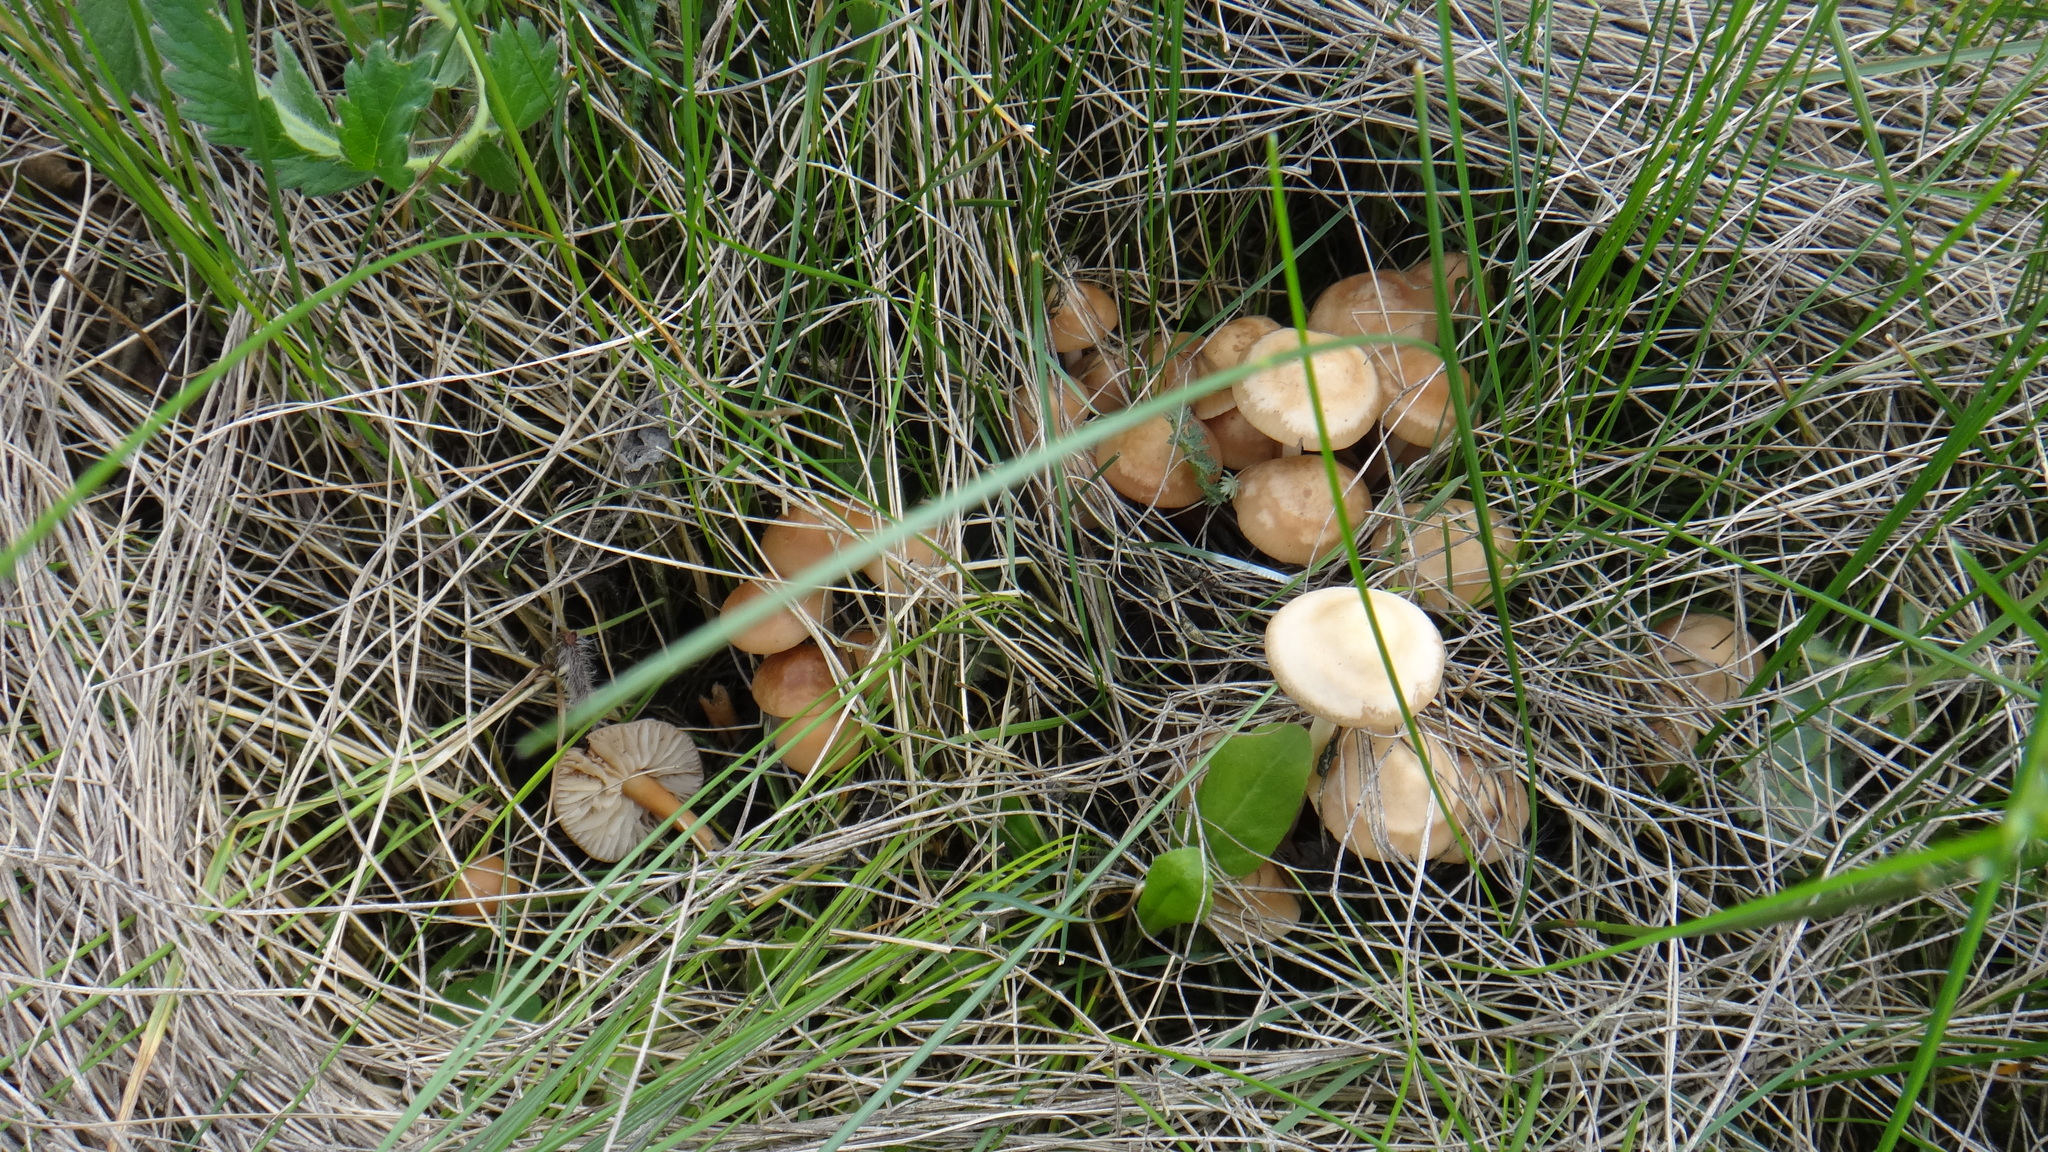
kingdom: Fungi
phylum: Basidiomycota
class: Agaricomycetes
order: Agaricales
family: Marasmiaceae
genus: Marasmius
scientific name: Marasmius oreades
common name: Fairy ring champignon
